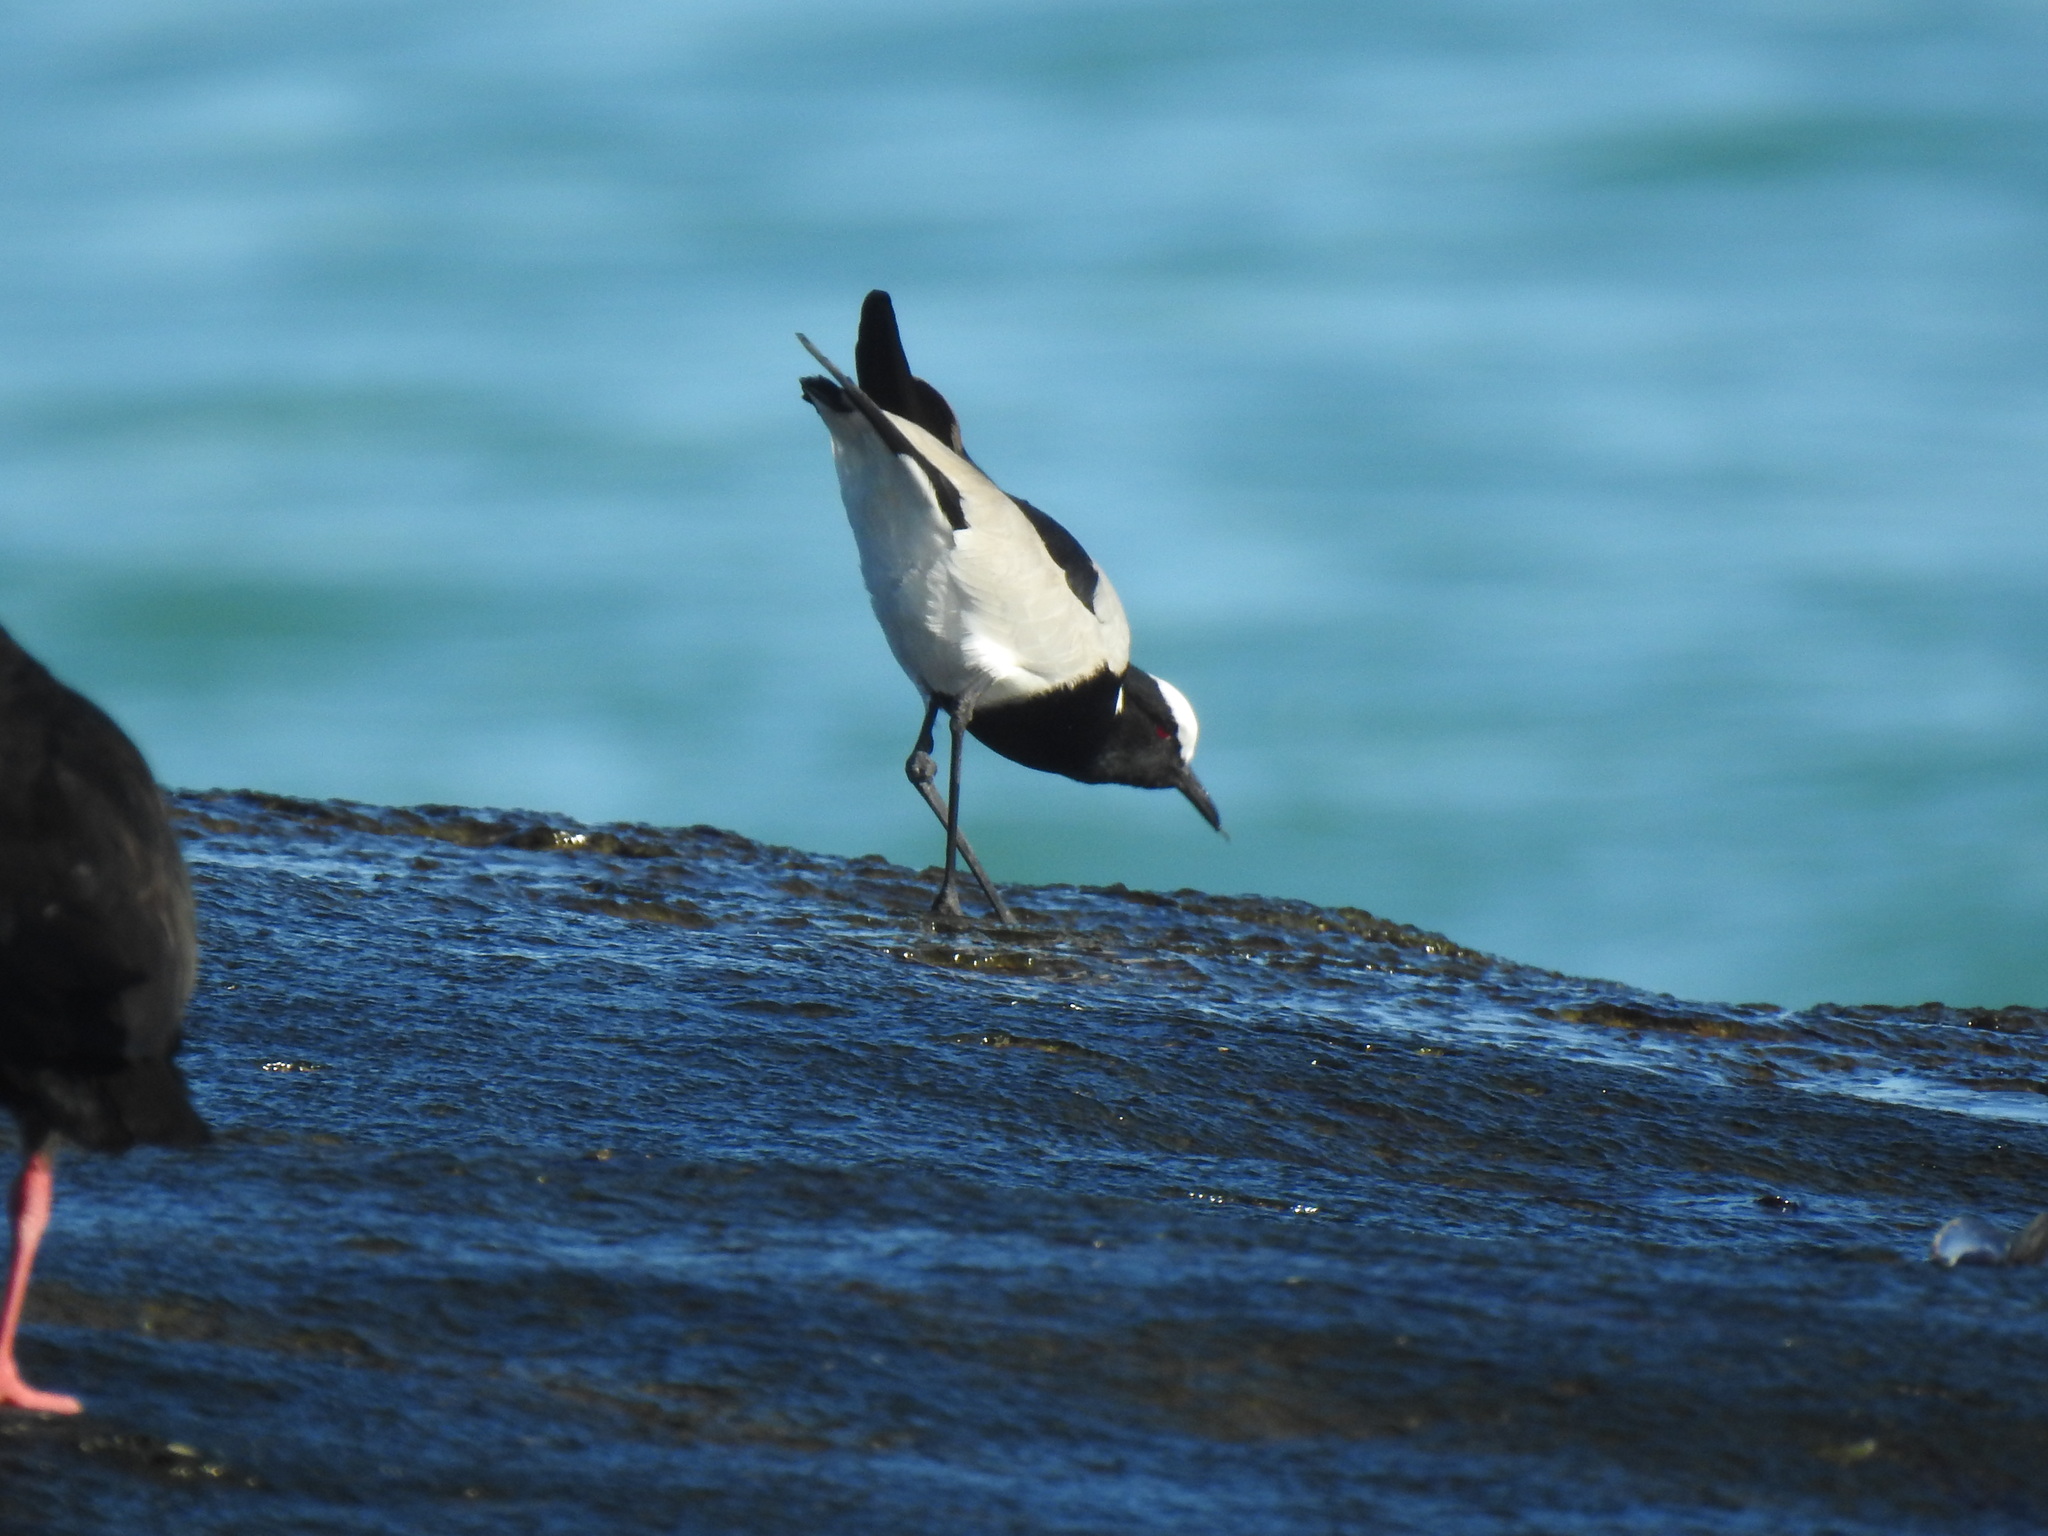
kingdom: Animalia
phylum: Chordata
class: Aves
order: Charadriiformes
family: Charadriidae
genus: Vanellus
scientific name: Vanellus armatus
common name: Blacksmith lapwing
